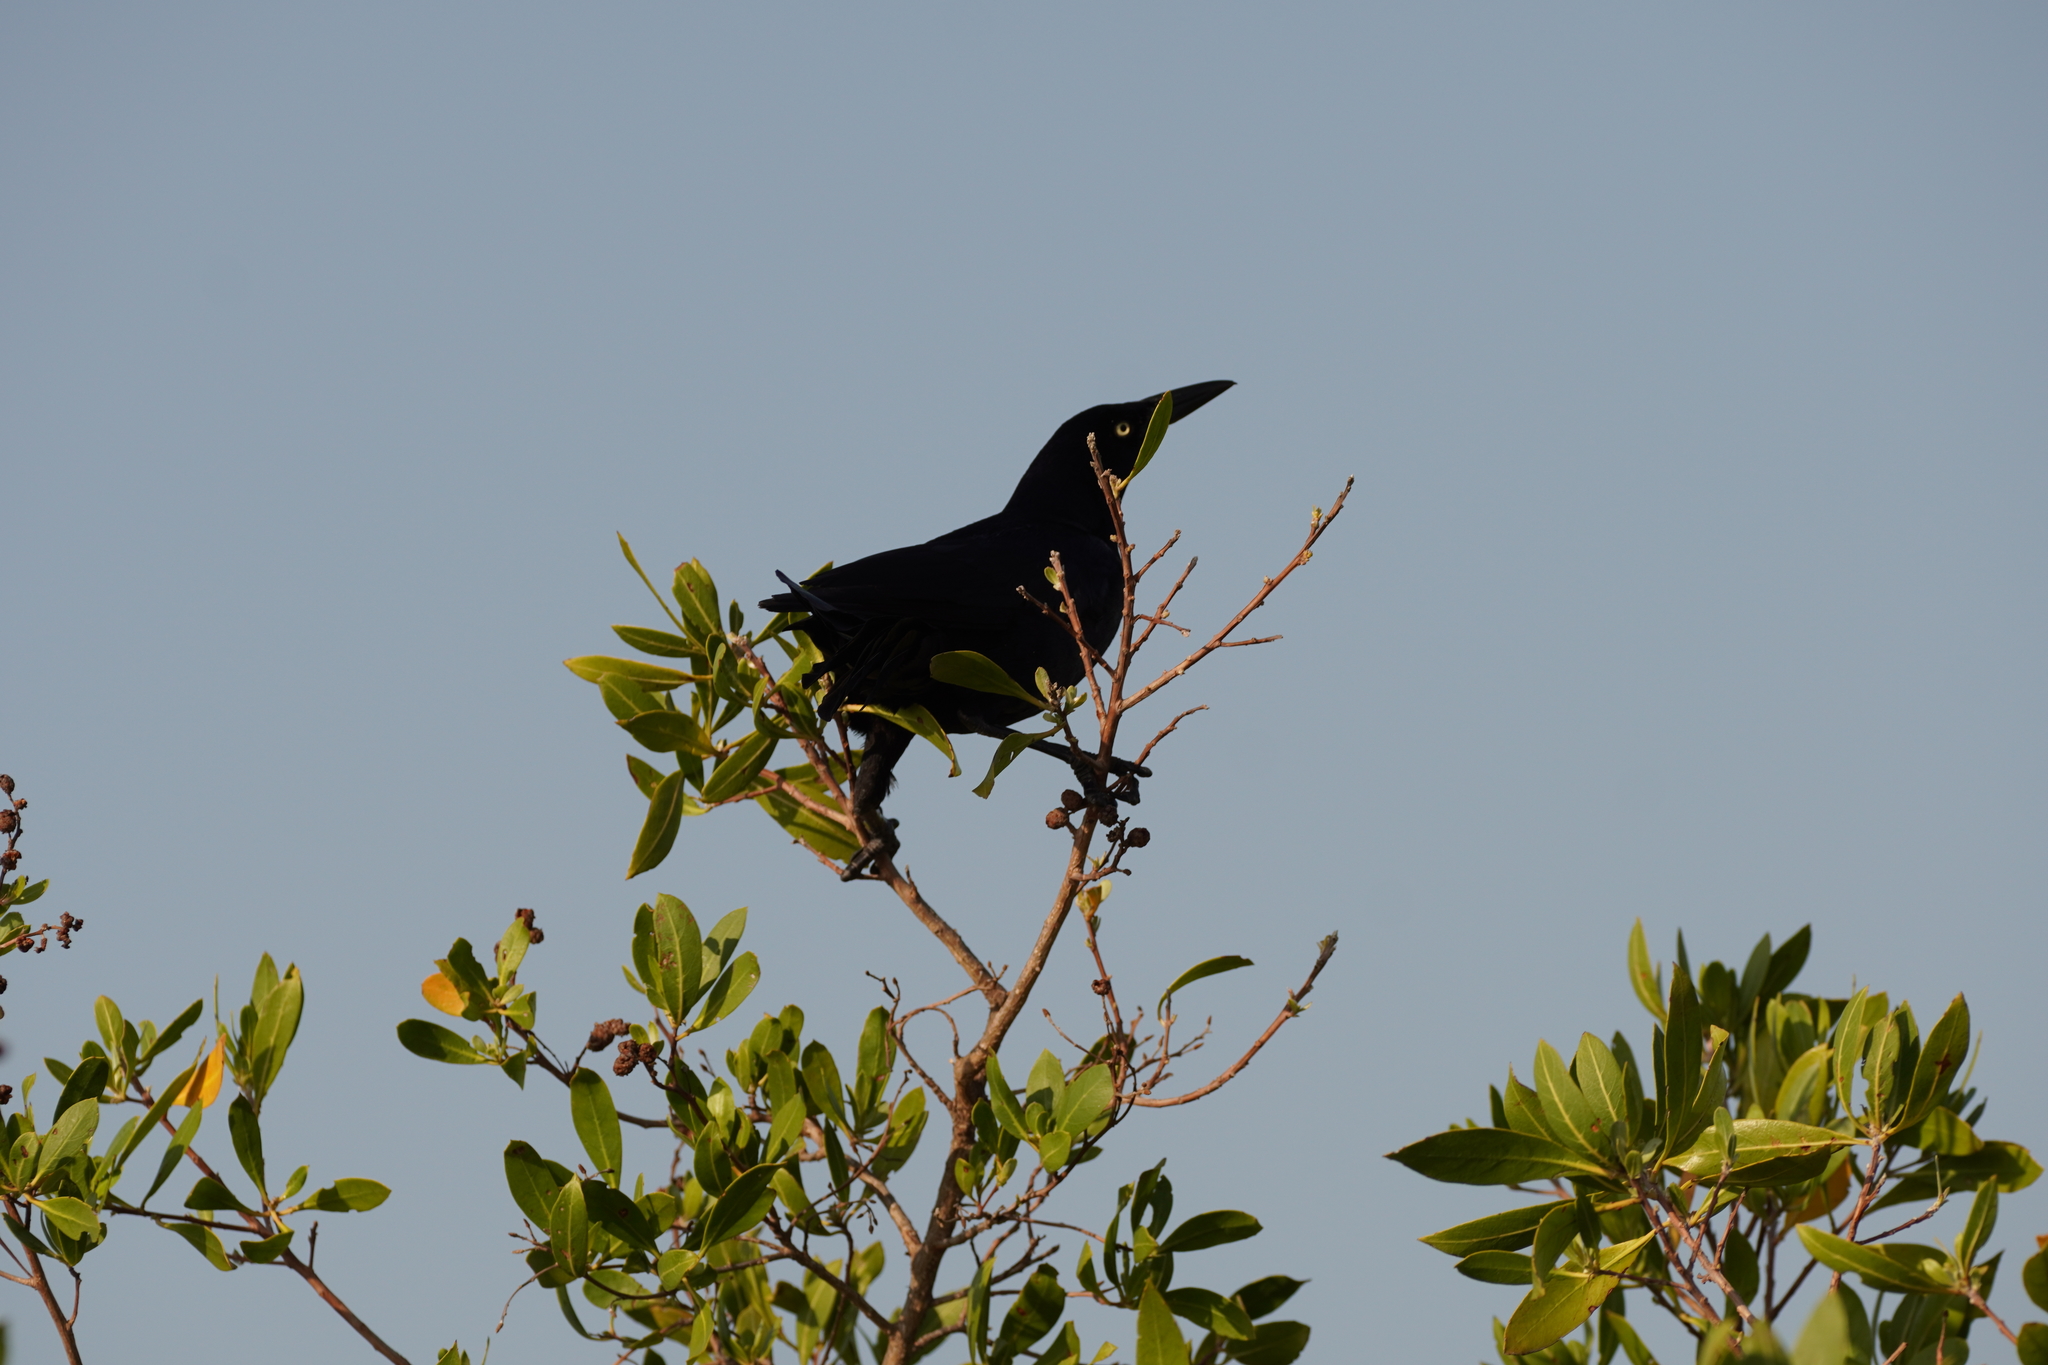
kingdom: Animalia
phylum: Chordata
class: Aves
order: Passeriformes
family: Icteridae
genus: Quiscalus
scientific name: Quiscalus mexicanus
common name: Great-tailed grackle
